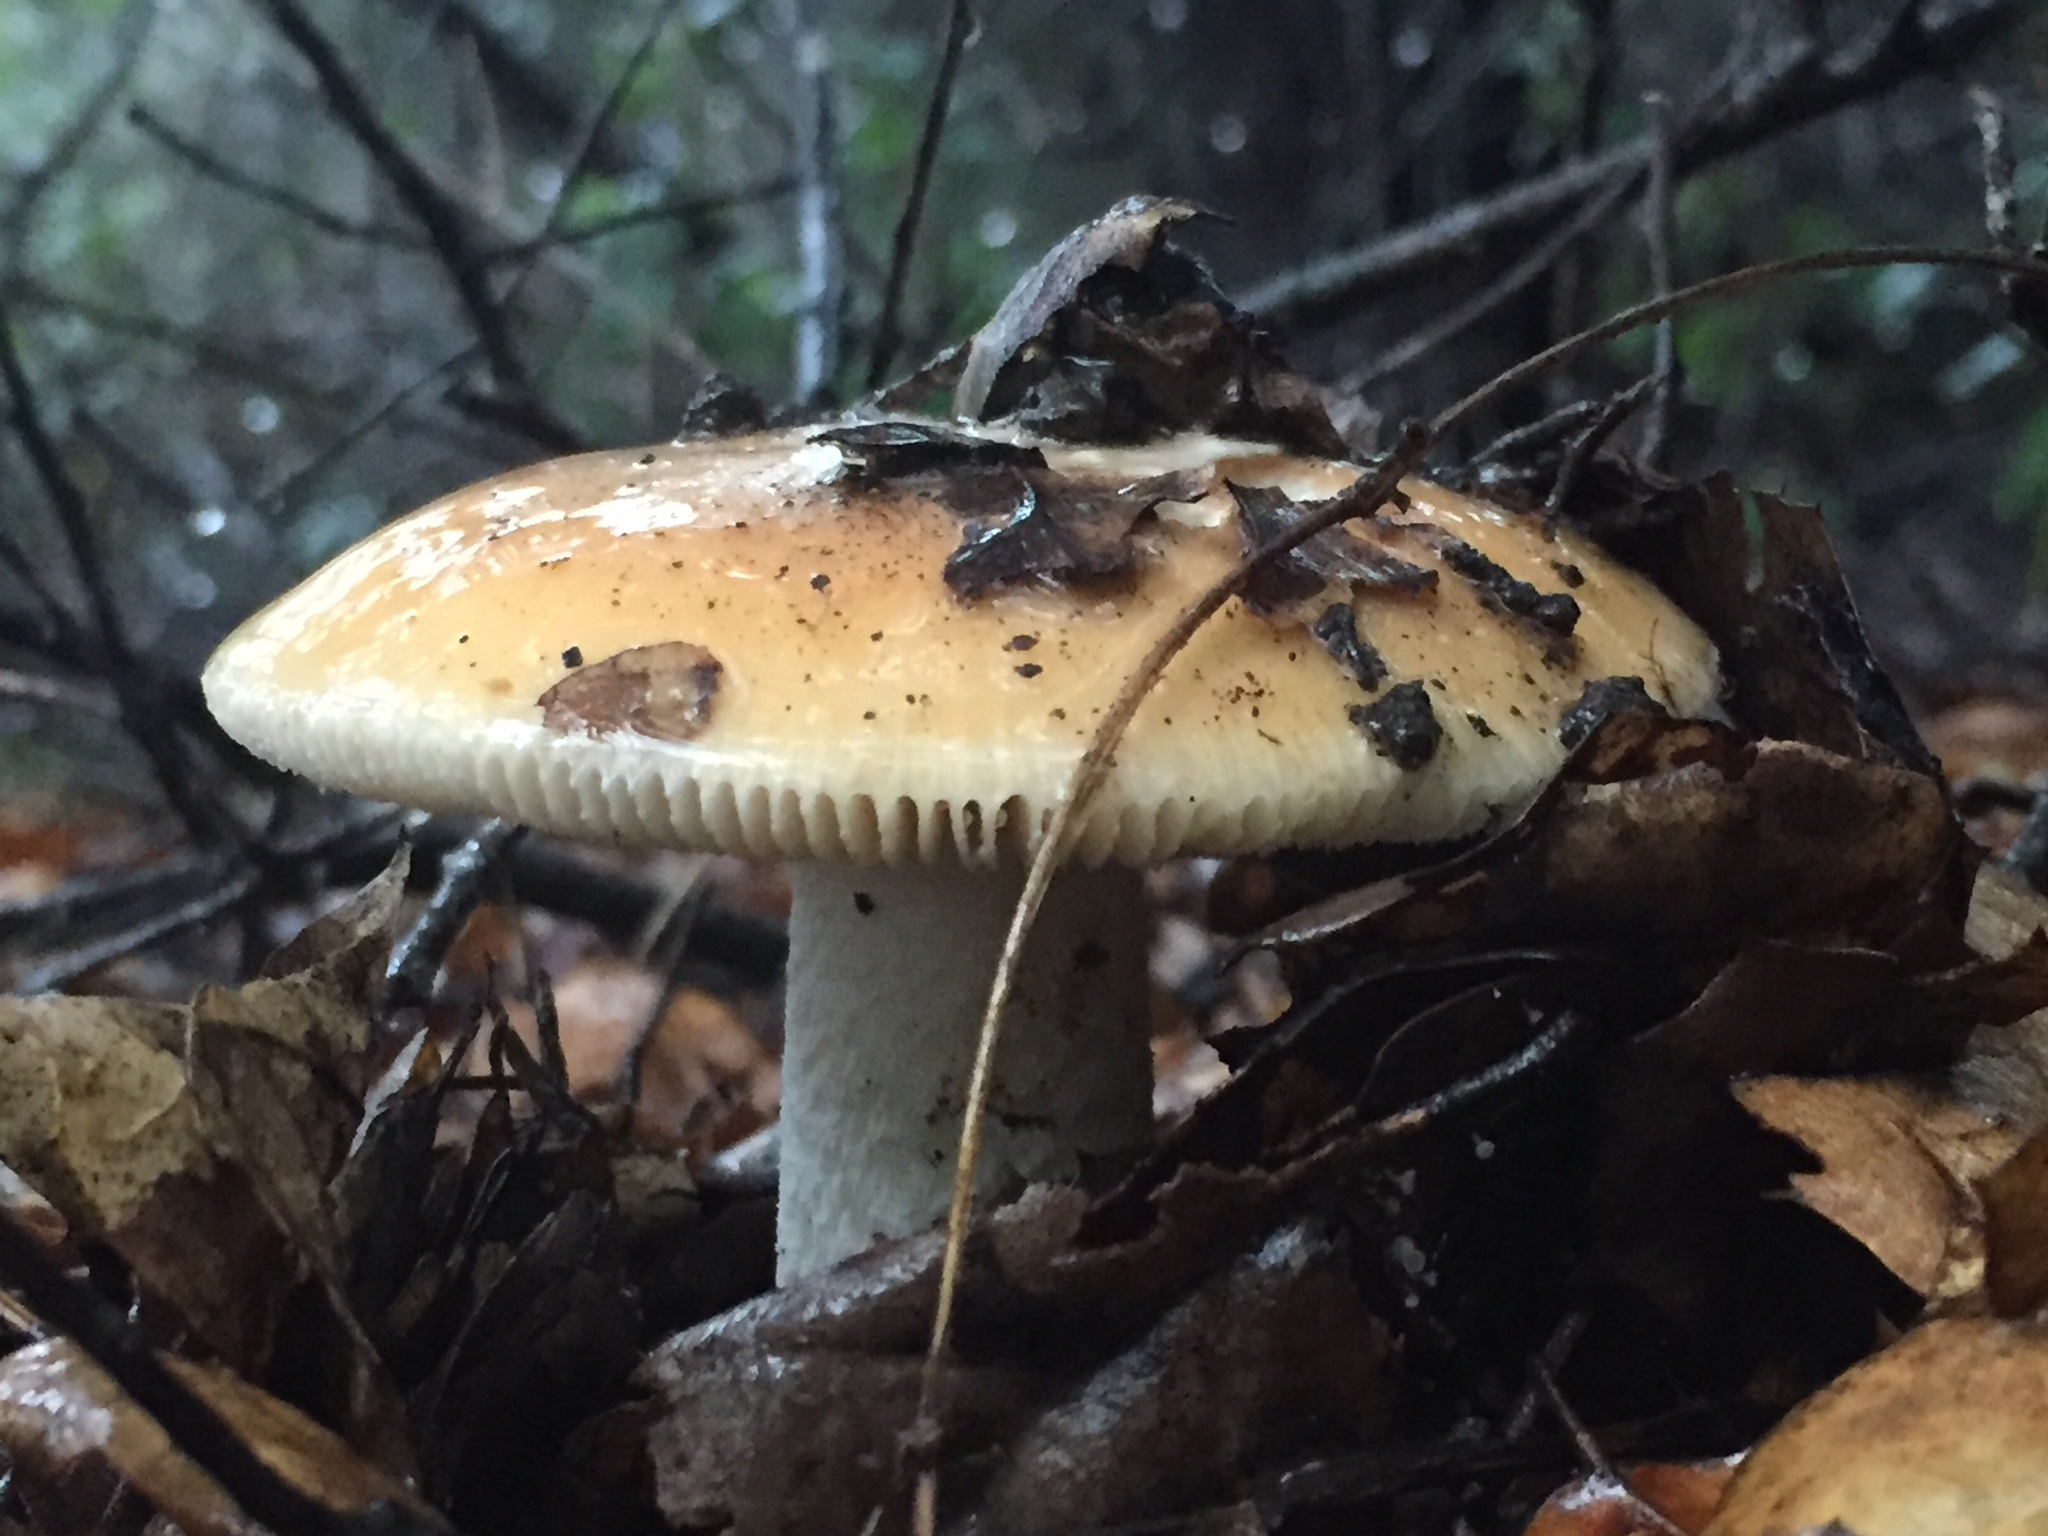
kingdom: Fungi
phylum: Basidiomycota
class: Agaricomycetes
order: Agaricales
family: Amanitaceae
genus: Amanita
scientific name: Amanita velosa
